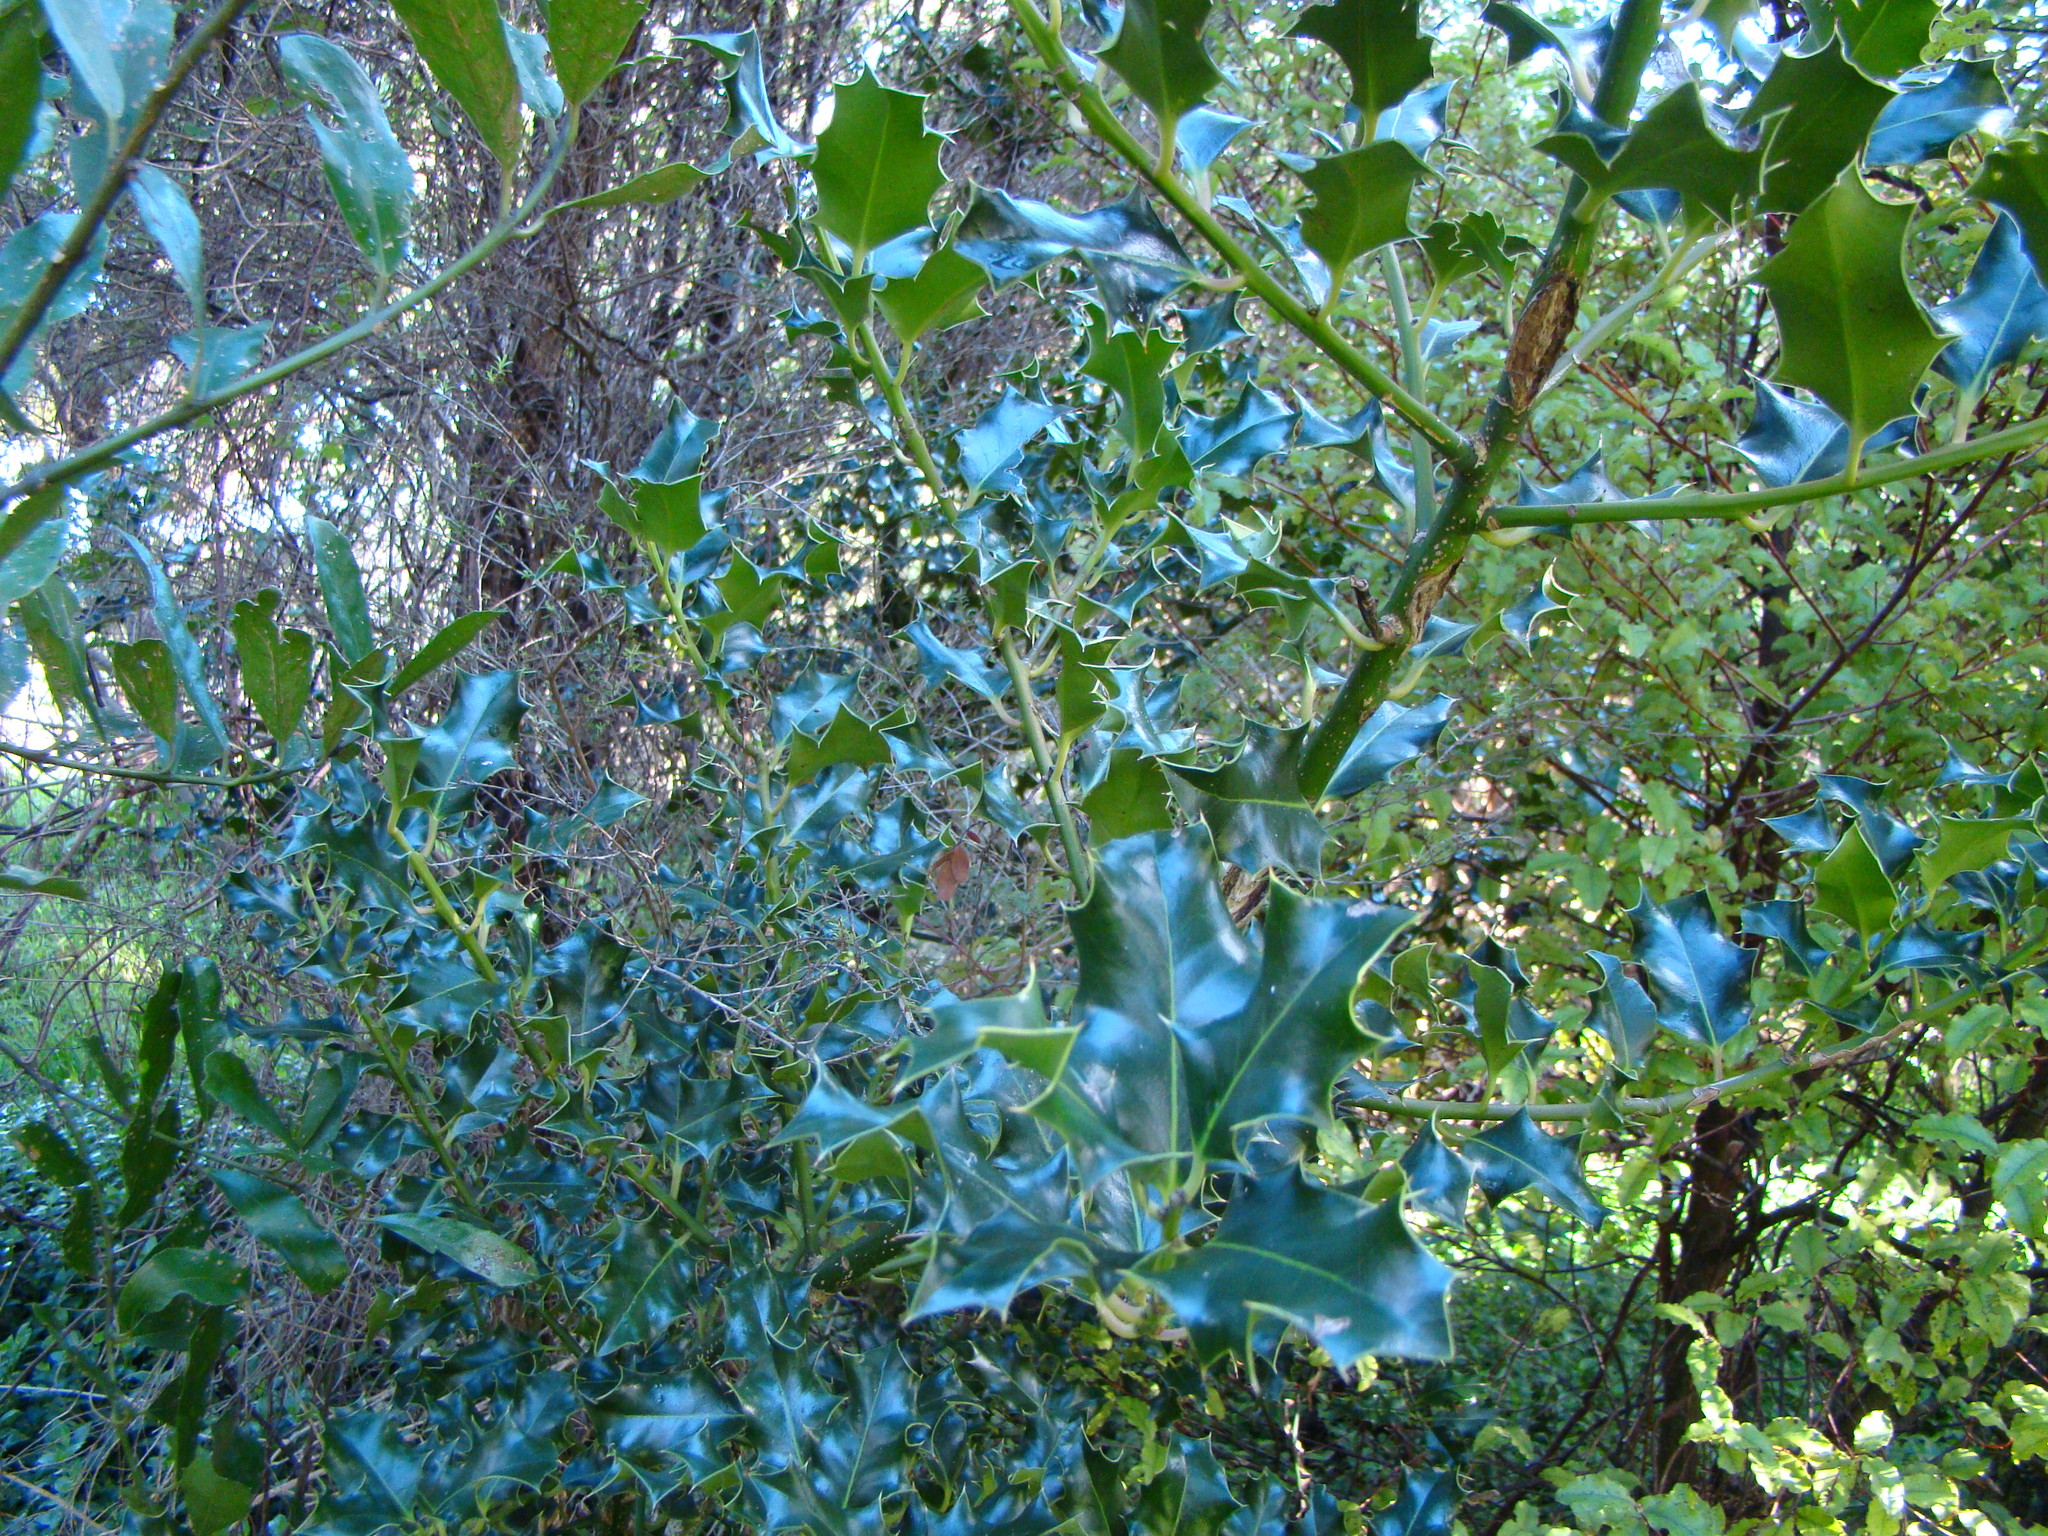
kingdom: Plantae
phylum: Tracheophyta
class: Magnoliopsida
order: Aquifoliales
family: Aquifoliaceae
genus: Ilex
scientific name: Ilex aquifolium
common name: English holly
